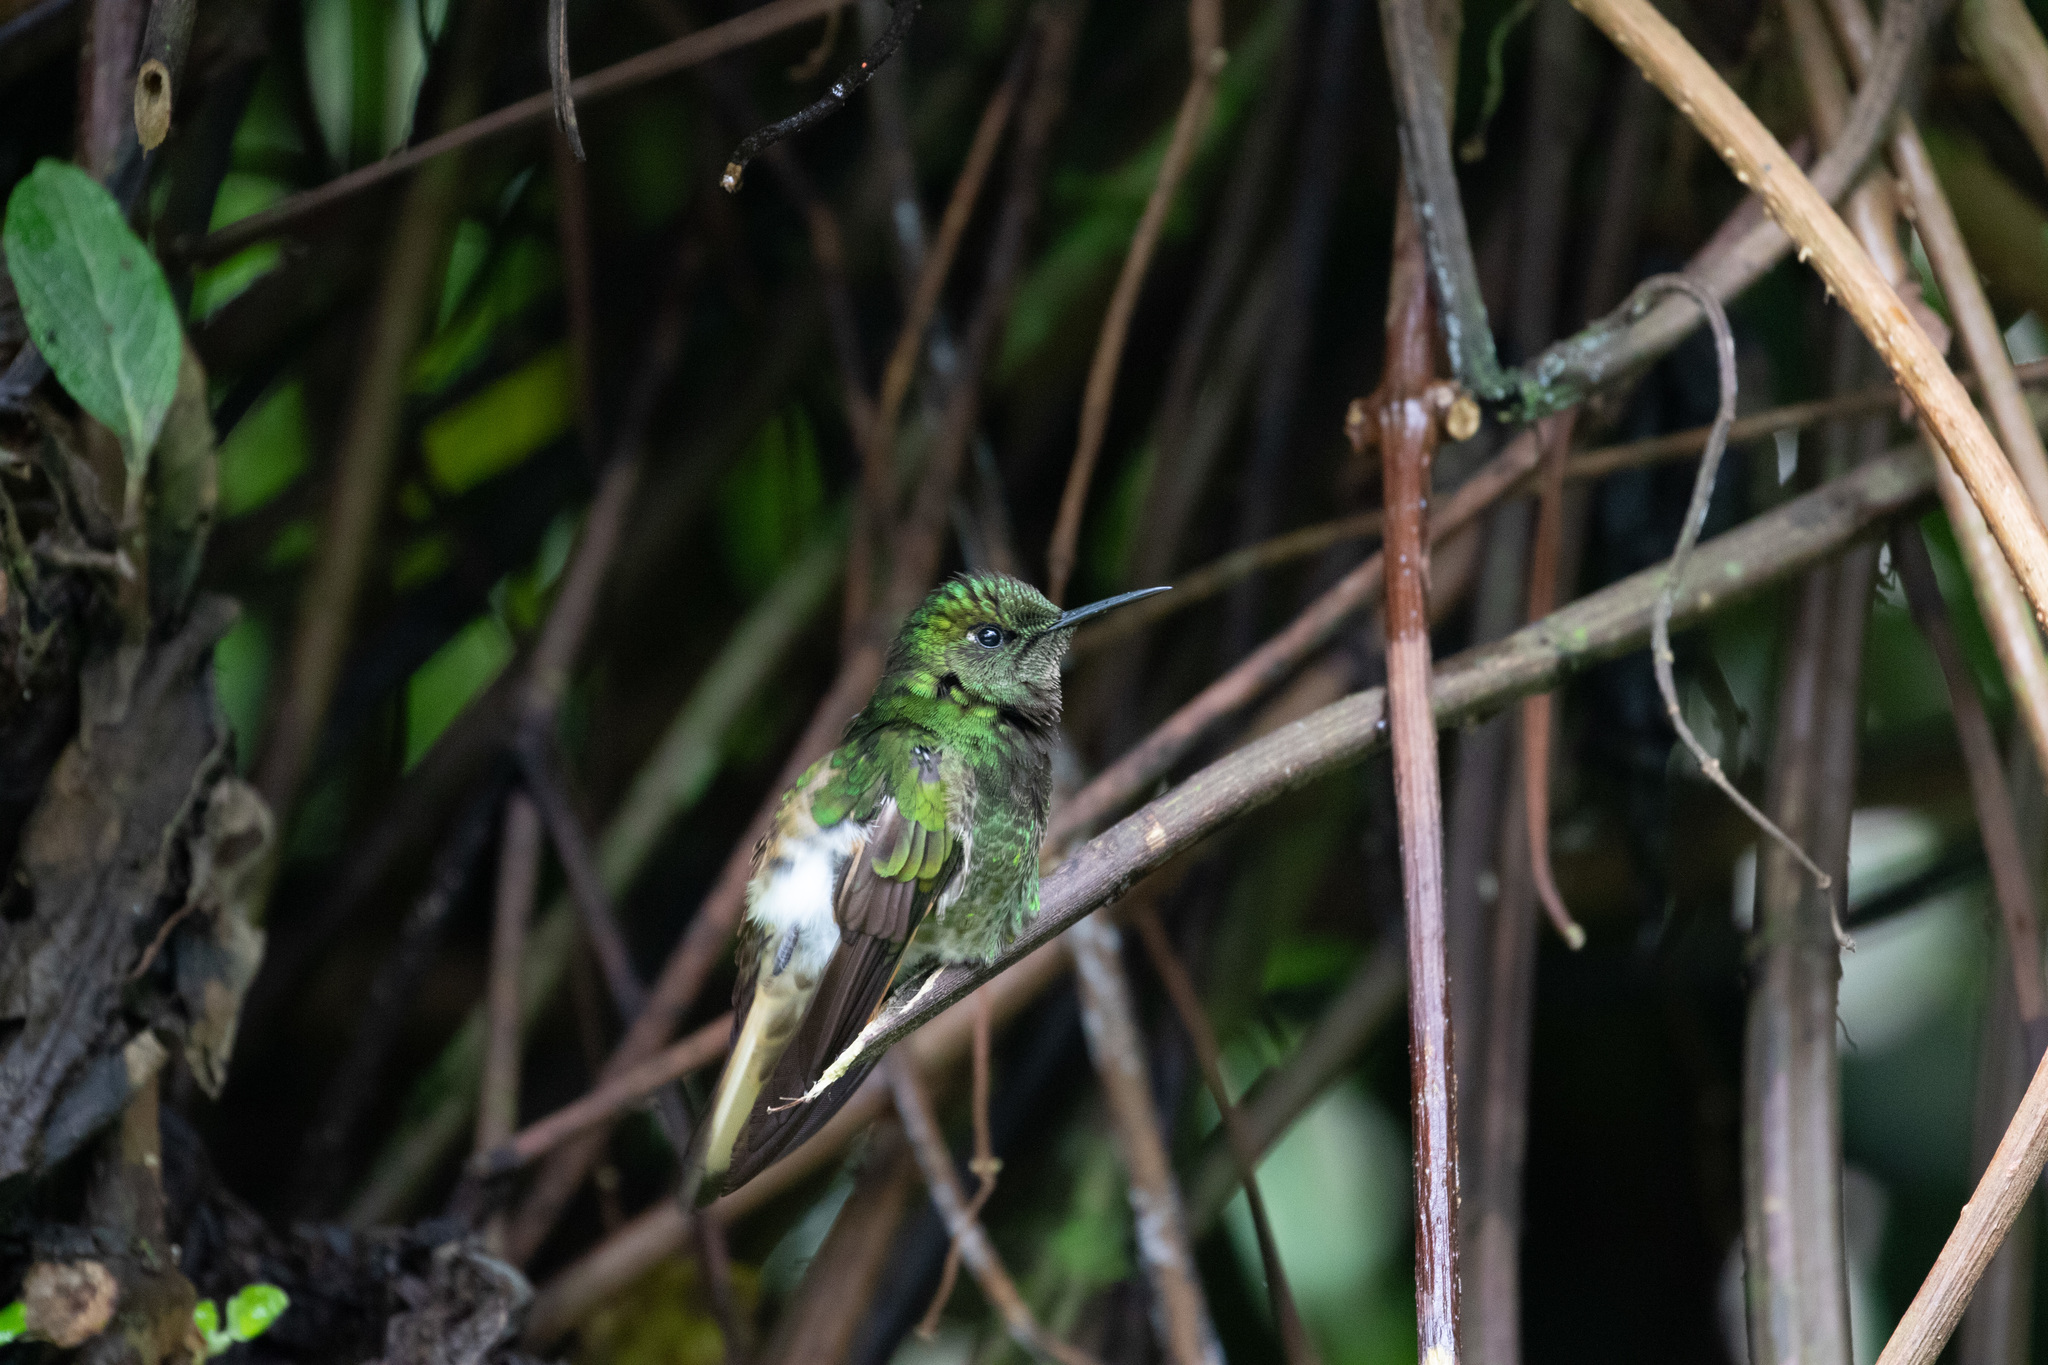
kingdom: Animalia
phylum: Chordata
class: Aves
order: Apodiformes
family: Trochilidae
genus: Boissonneaua
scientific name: Boissonneaua flavescens
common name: Buff-tailed coronet
